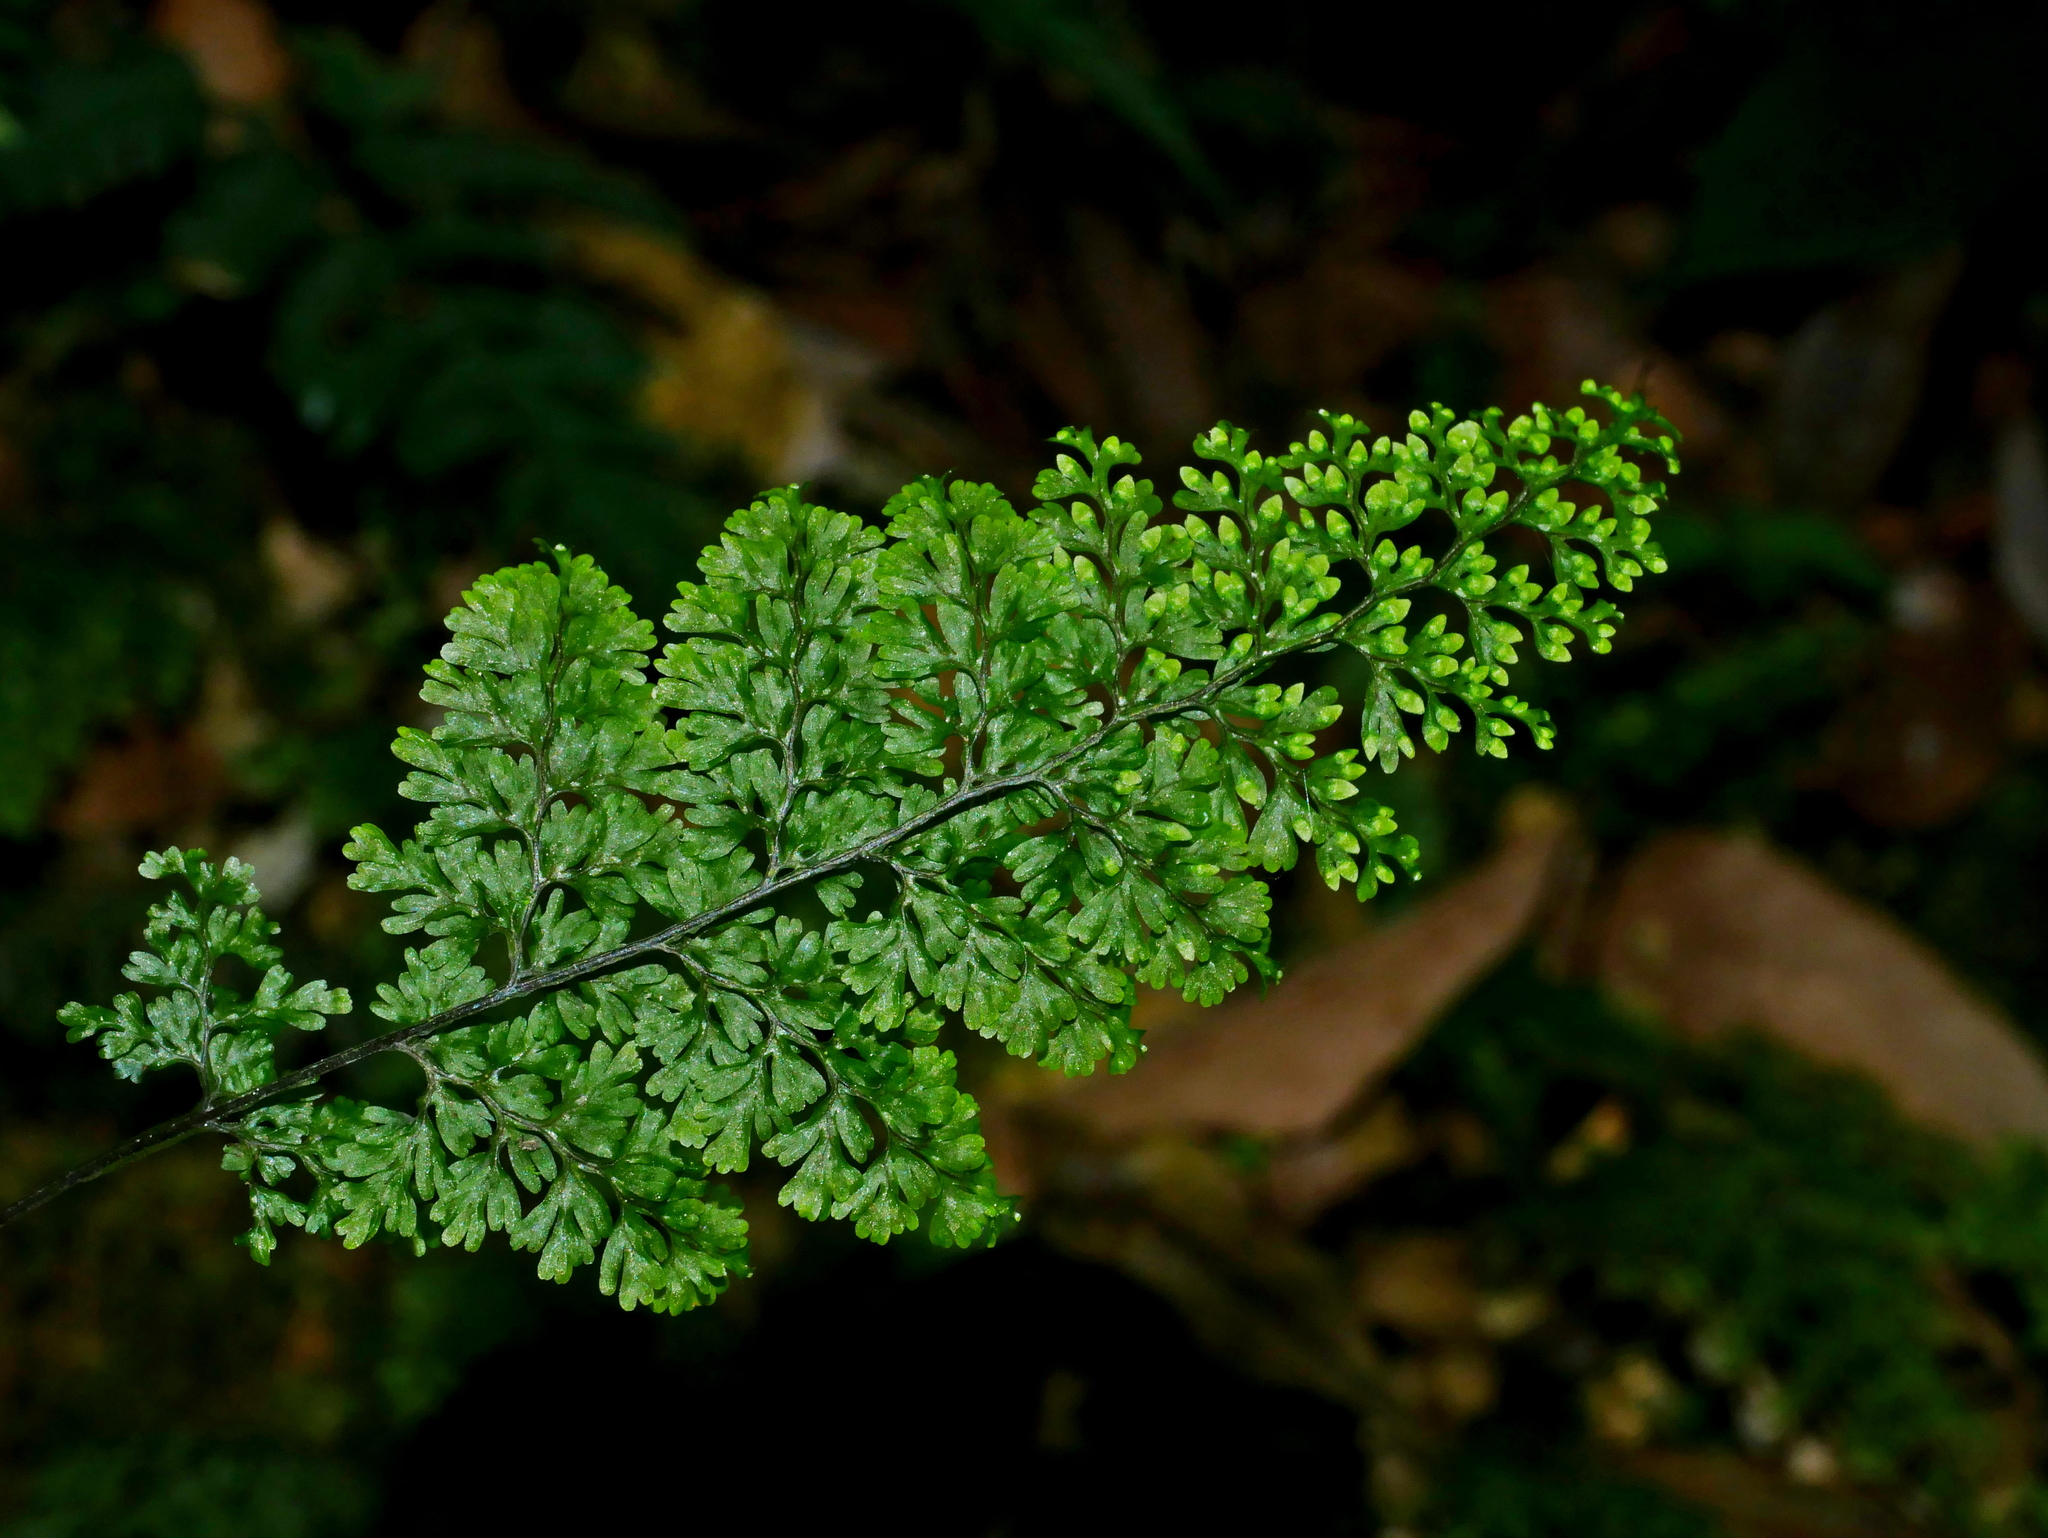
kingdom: Plantae
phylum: Tracheophyta
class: Polypodiopsida
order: Hymenophyllales
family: Hymenophyllaceae
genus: Hymenophyllum
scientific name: Hymenophyllum fujisanense
